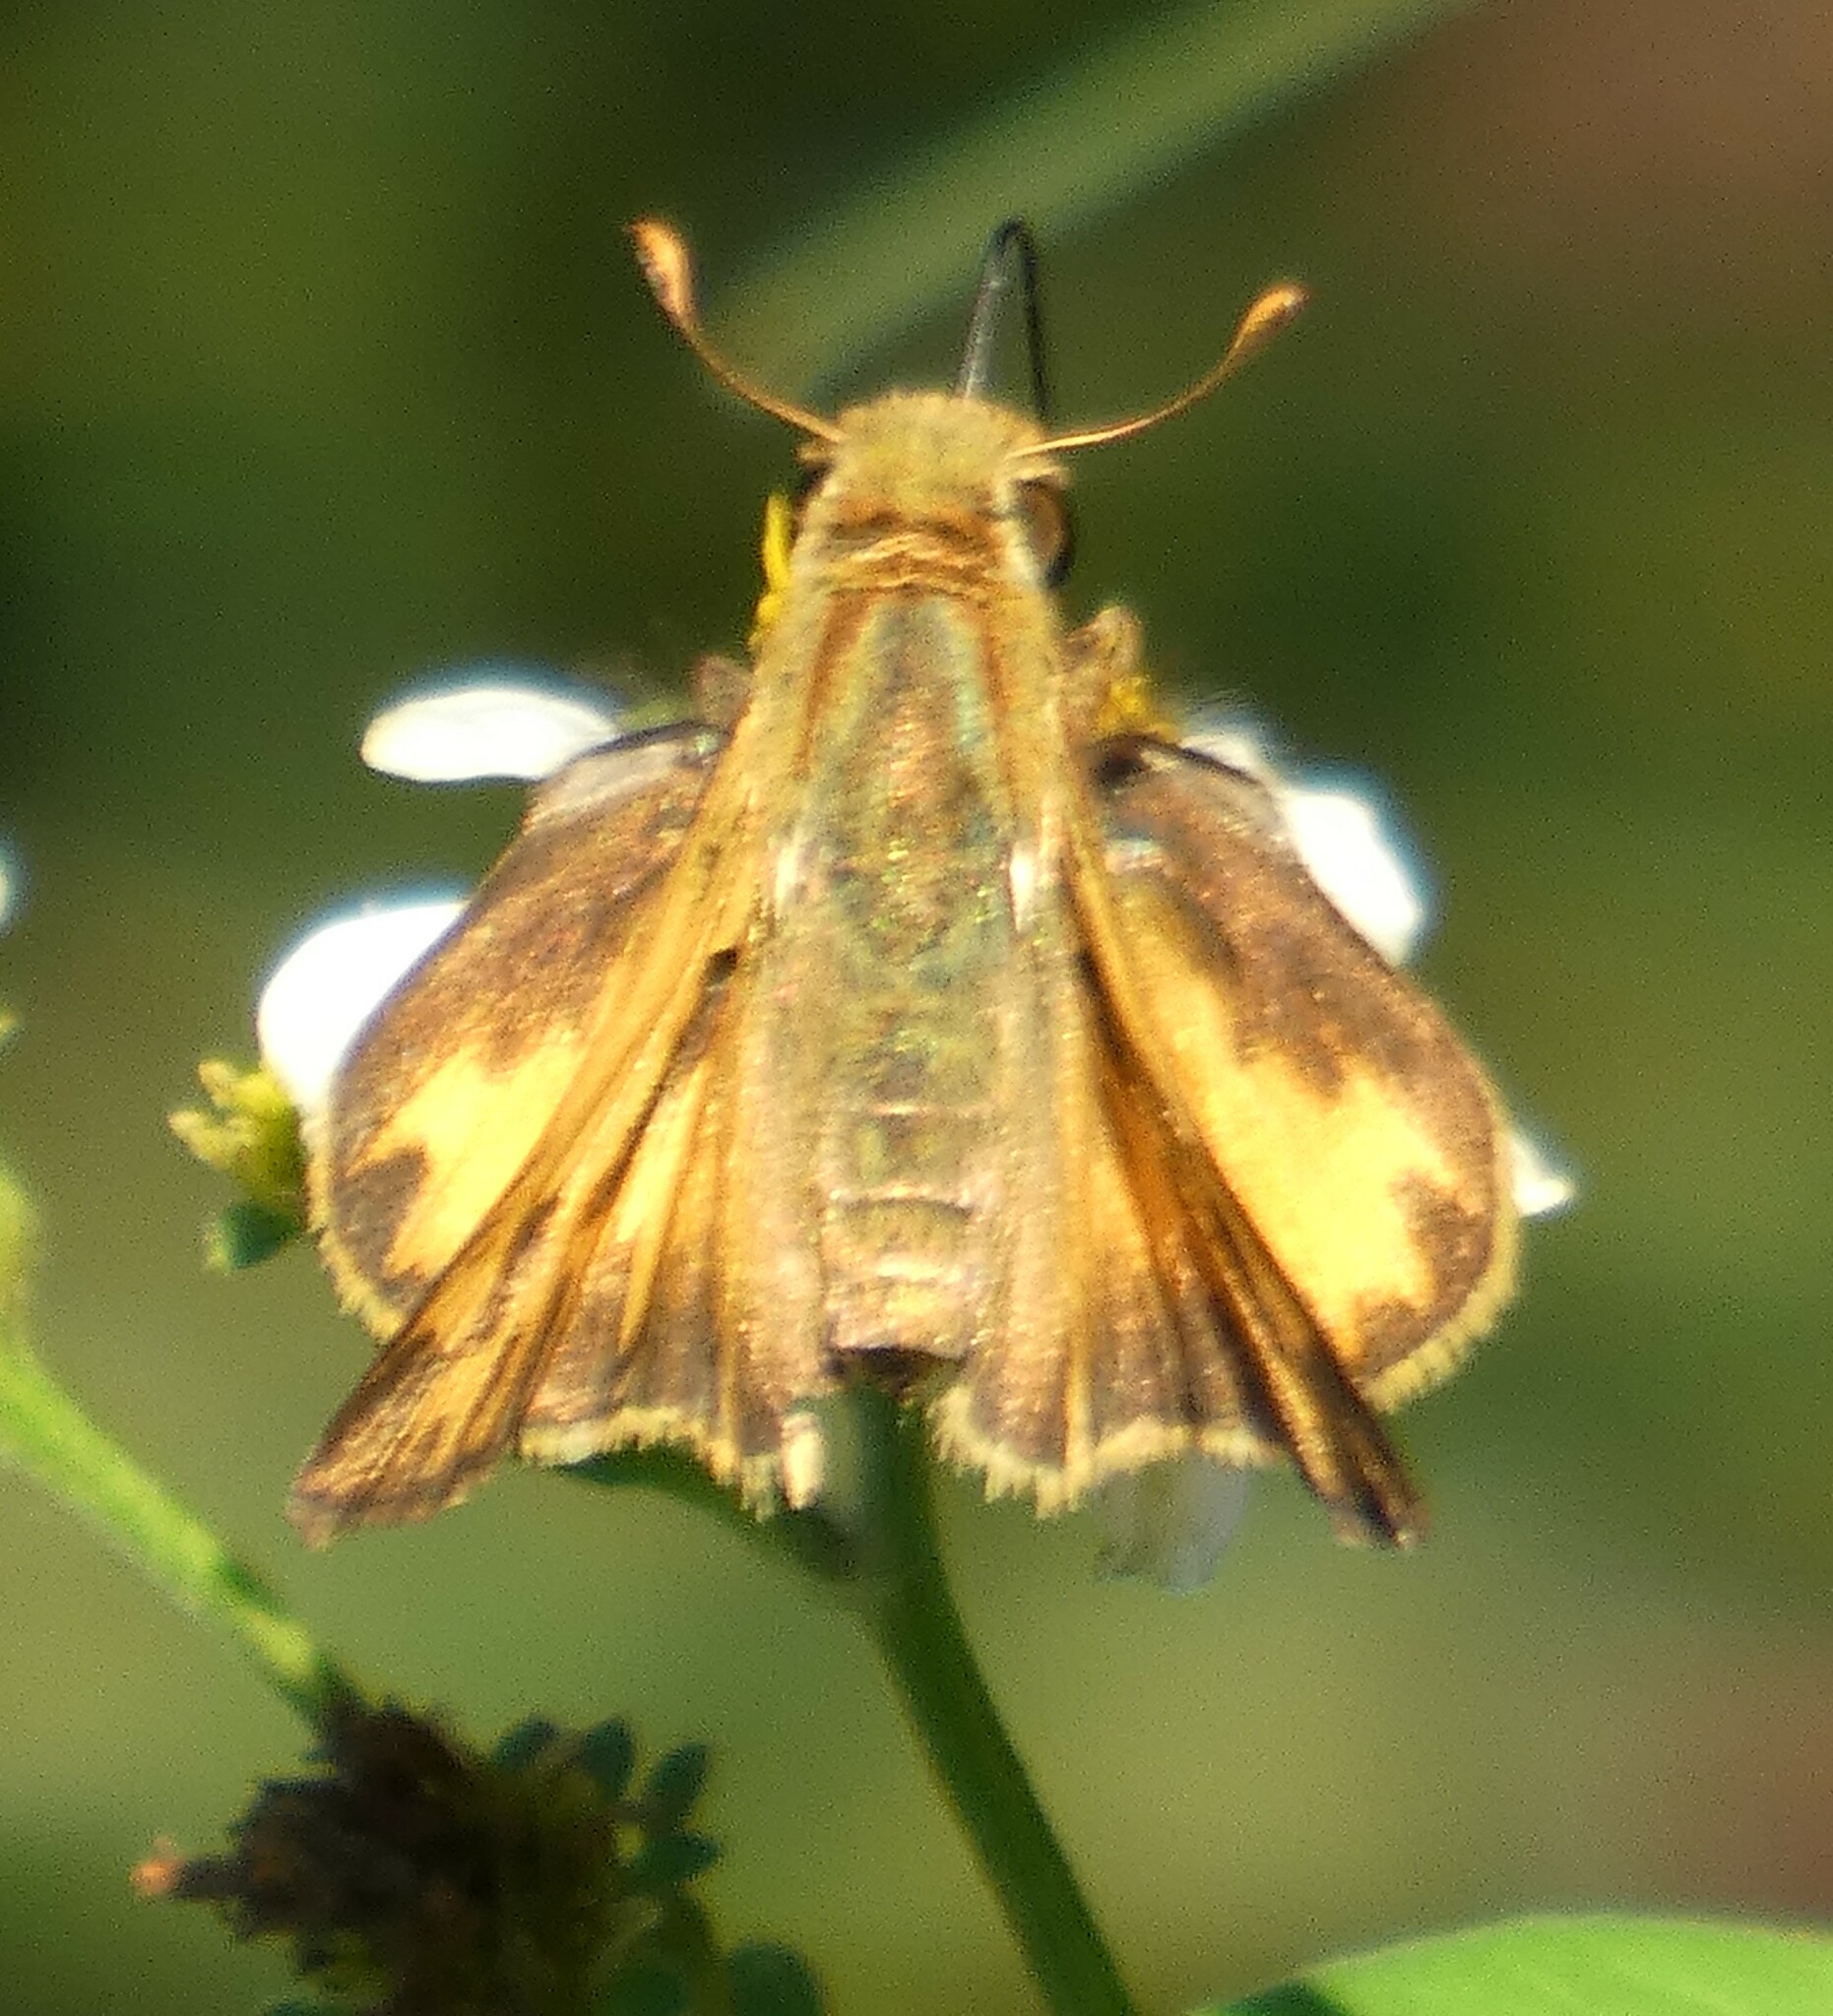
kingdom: Animalia
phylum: Arthropoda
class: Insecta
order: Lepidoptera
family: Hesperiidae
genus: Hylephila
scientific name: Hylephila phyleus
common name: Fiery skipper
